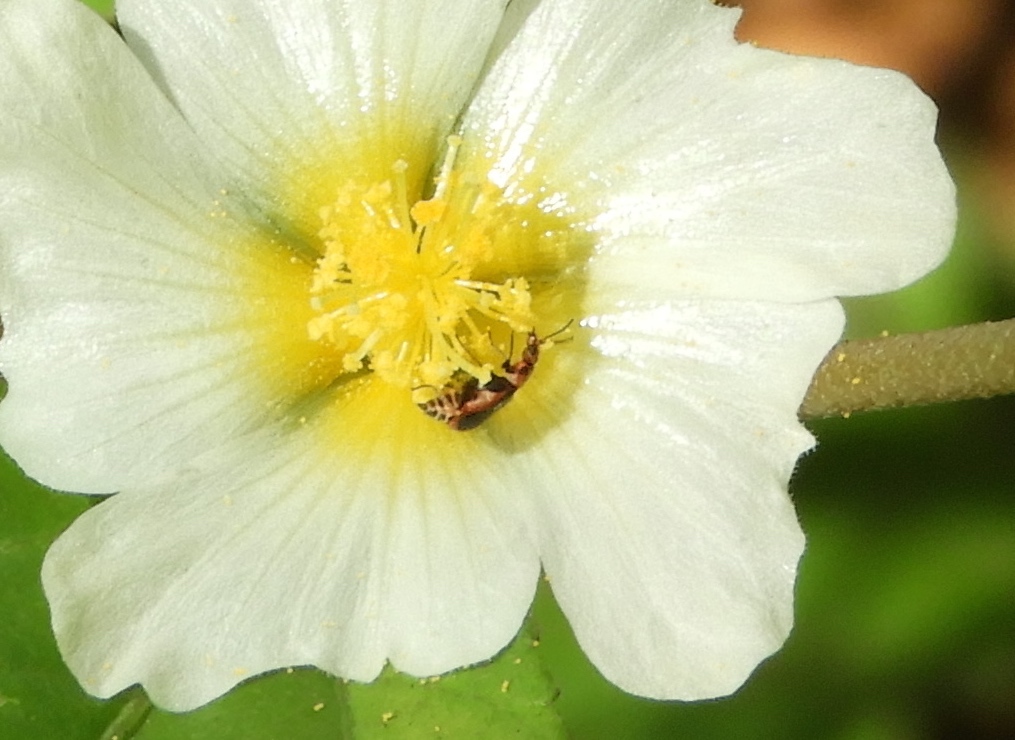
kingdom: Animalia
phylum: Arthropoda
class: Insecta
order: Coleoptera
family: Melyridae
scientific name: Melyridae
